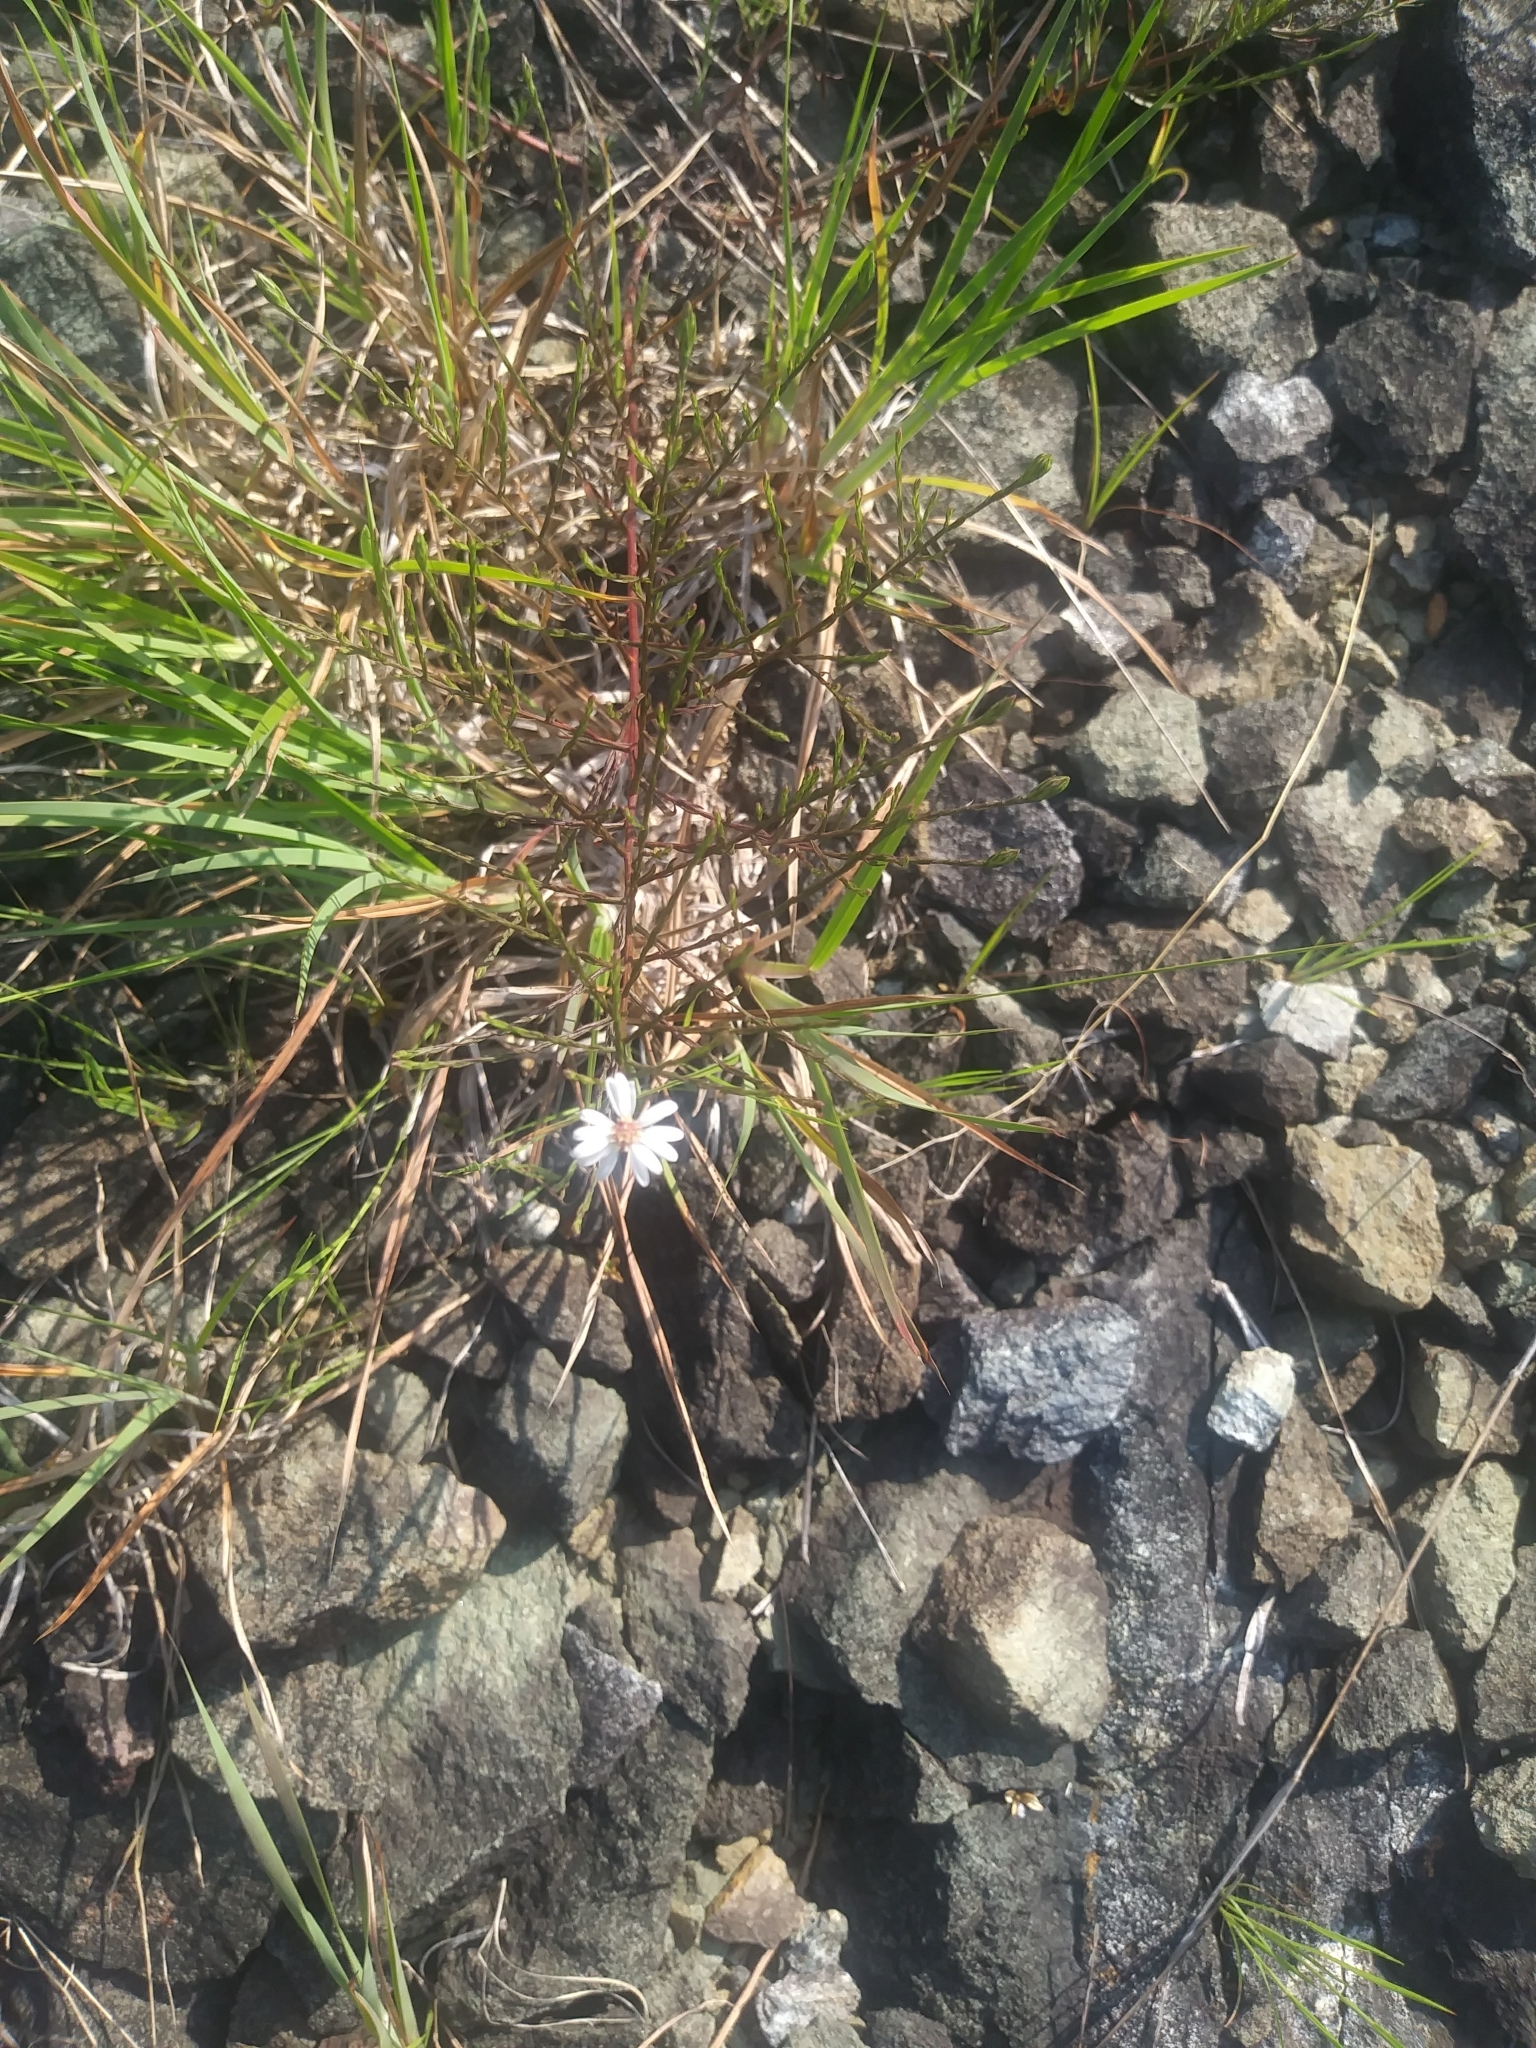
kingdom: Plantae
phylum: Tracheophyta
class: Magnoliopsida
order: Asterales
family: Asteraceae
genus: Symphyotrichum
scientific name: Symphyotrichum depauperatum
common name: Serpentine aster
